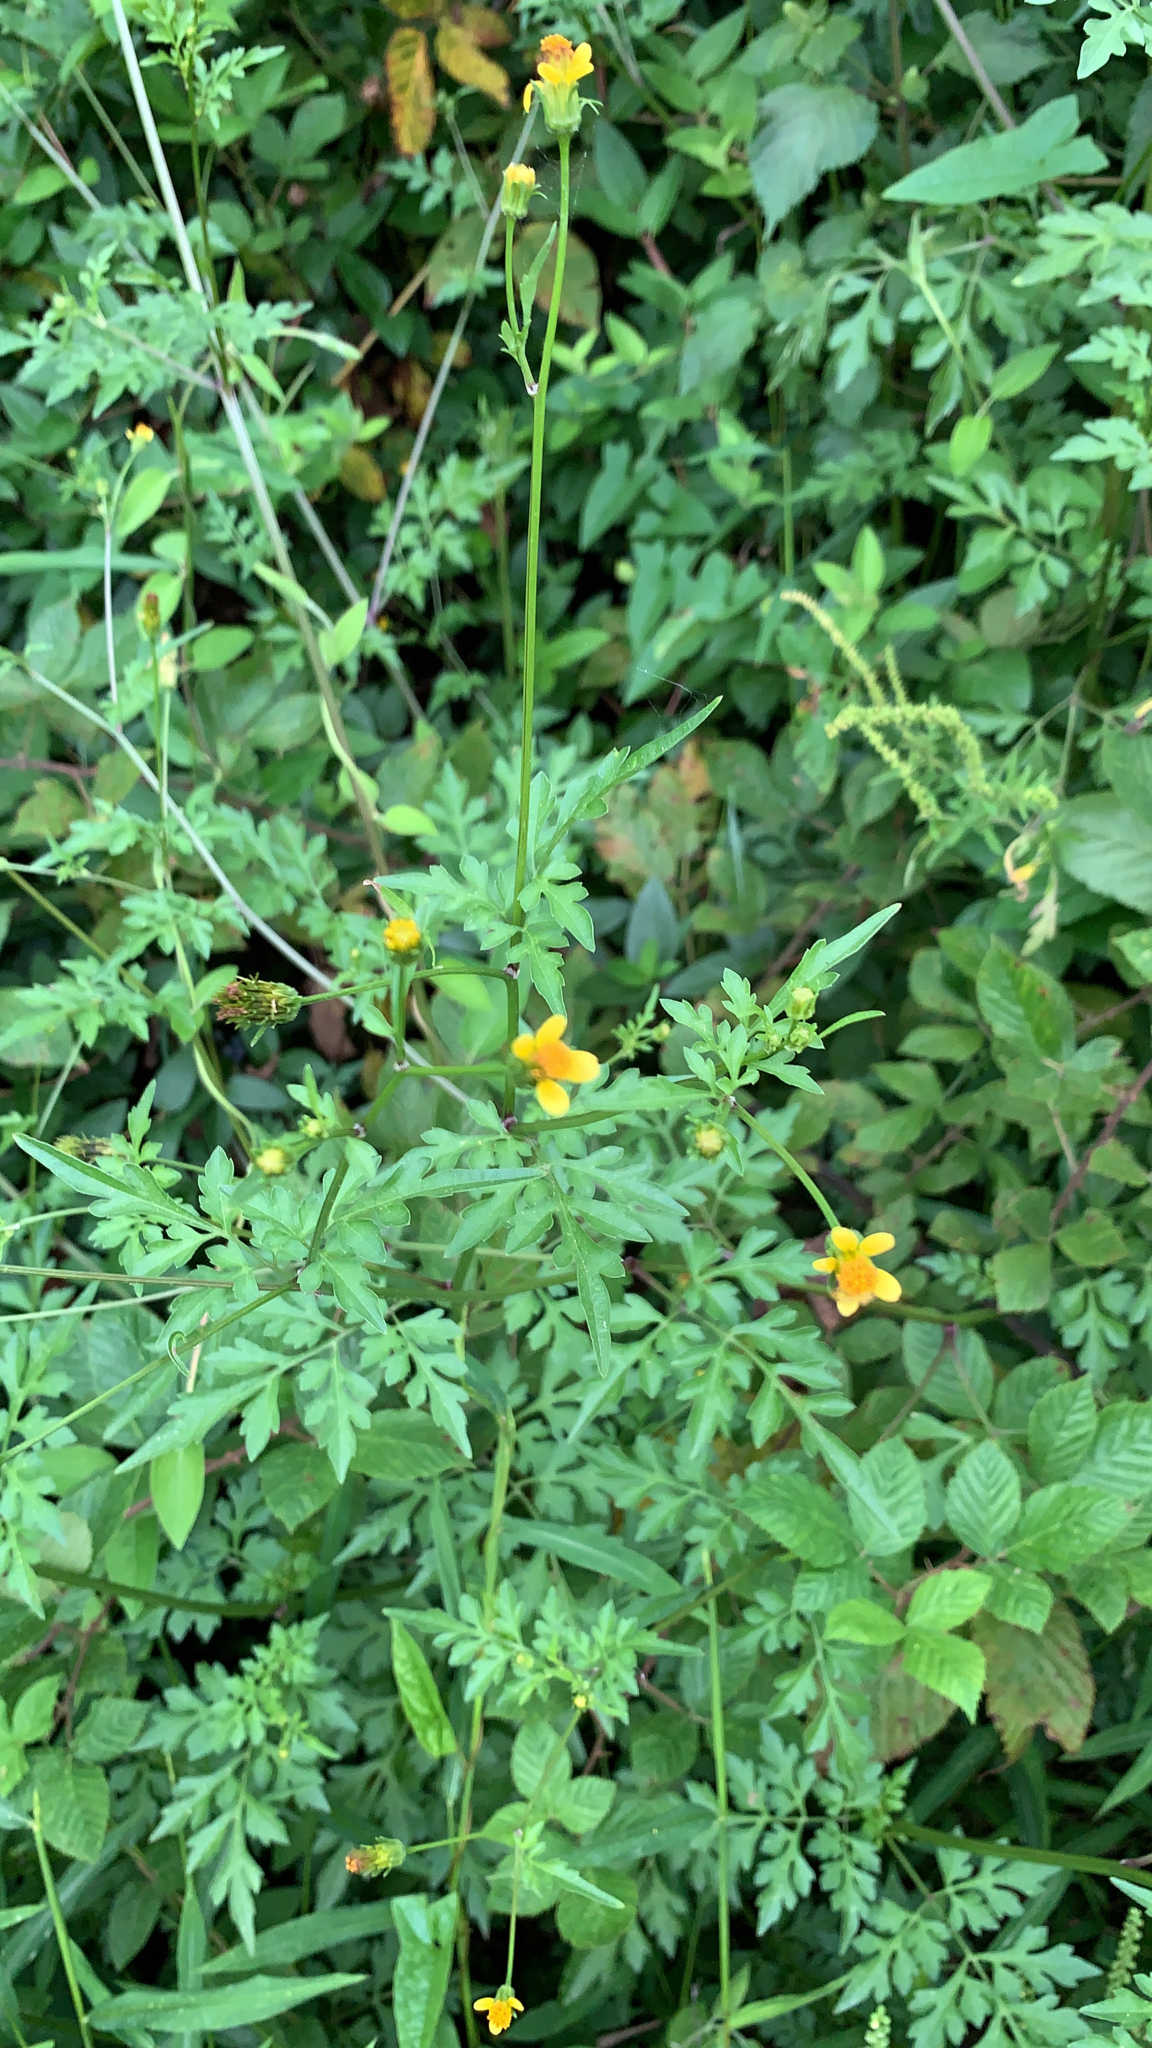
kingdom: Plantae
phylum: Tracheophyta
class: Magnoliopsida
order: Asterales
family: Asteraceae
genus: Bidens
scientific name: Bidens bipinnata
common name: Spanish-needles
